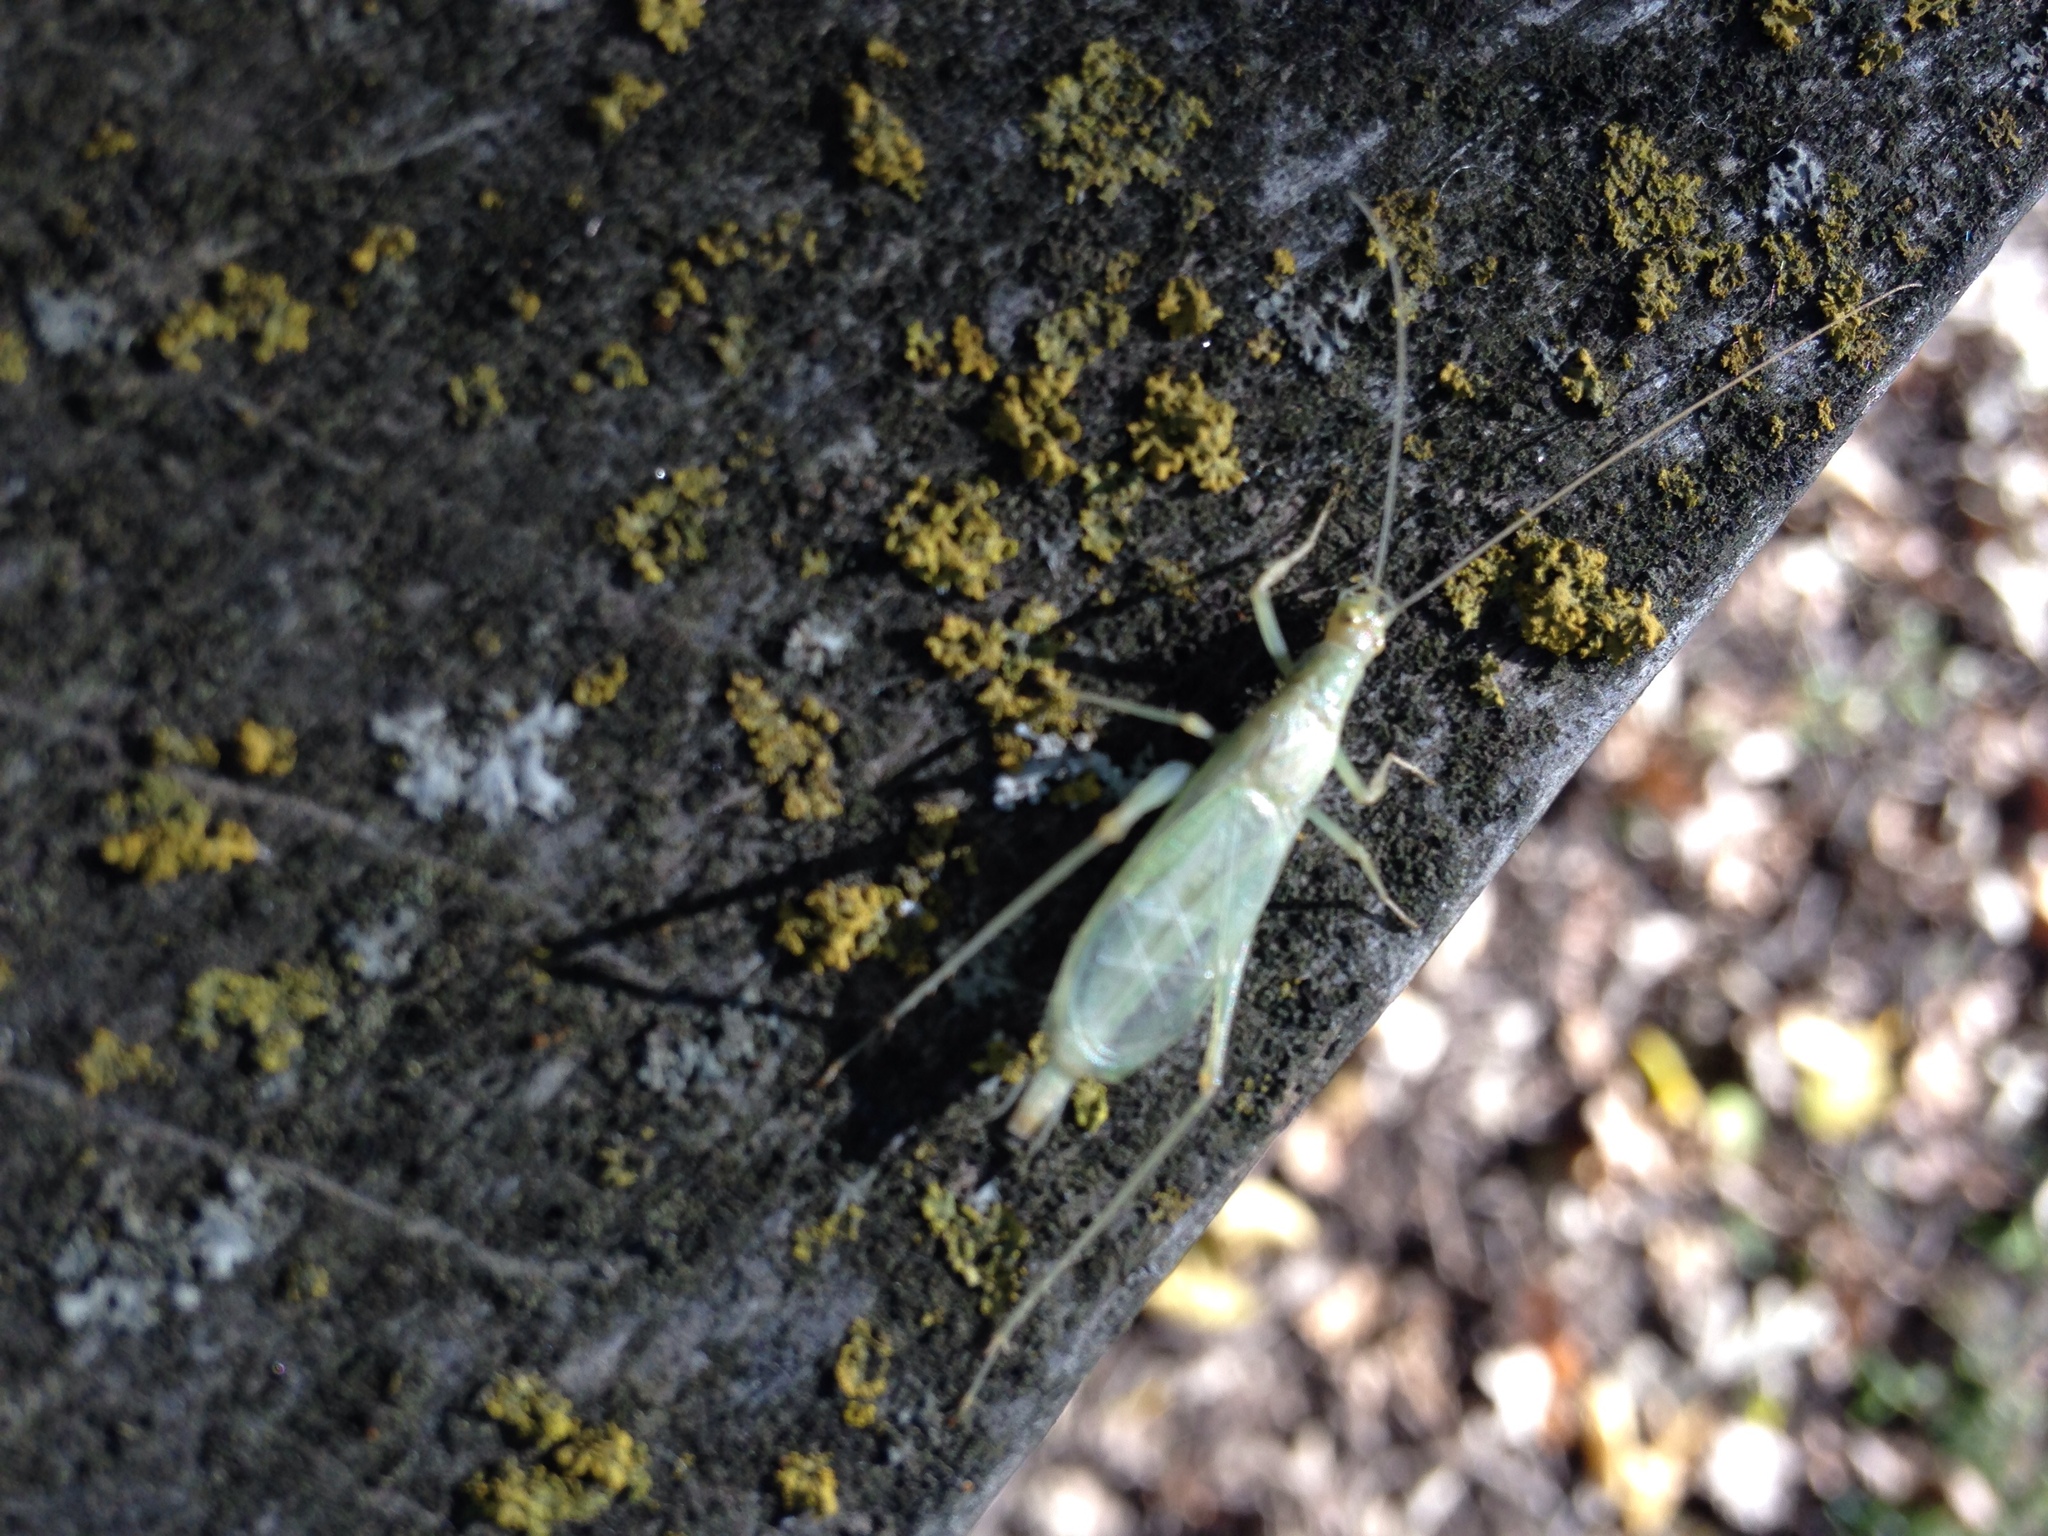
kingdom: Animalia
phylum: Arthropoda
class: Insecta
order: Orthoptera
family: Gryllidae
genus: Oecanthus
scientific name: Oecanthus
